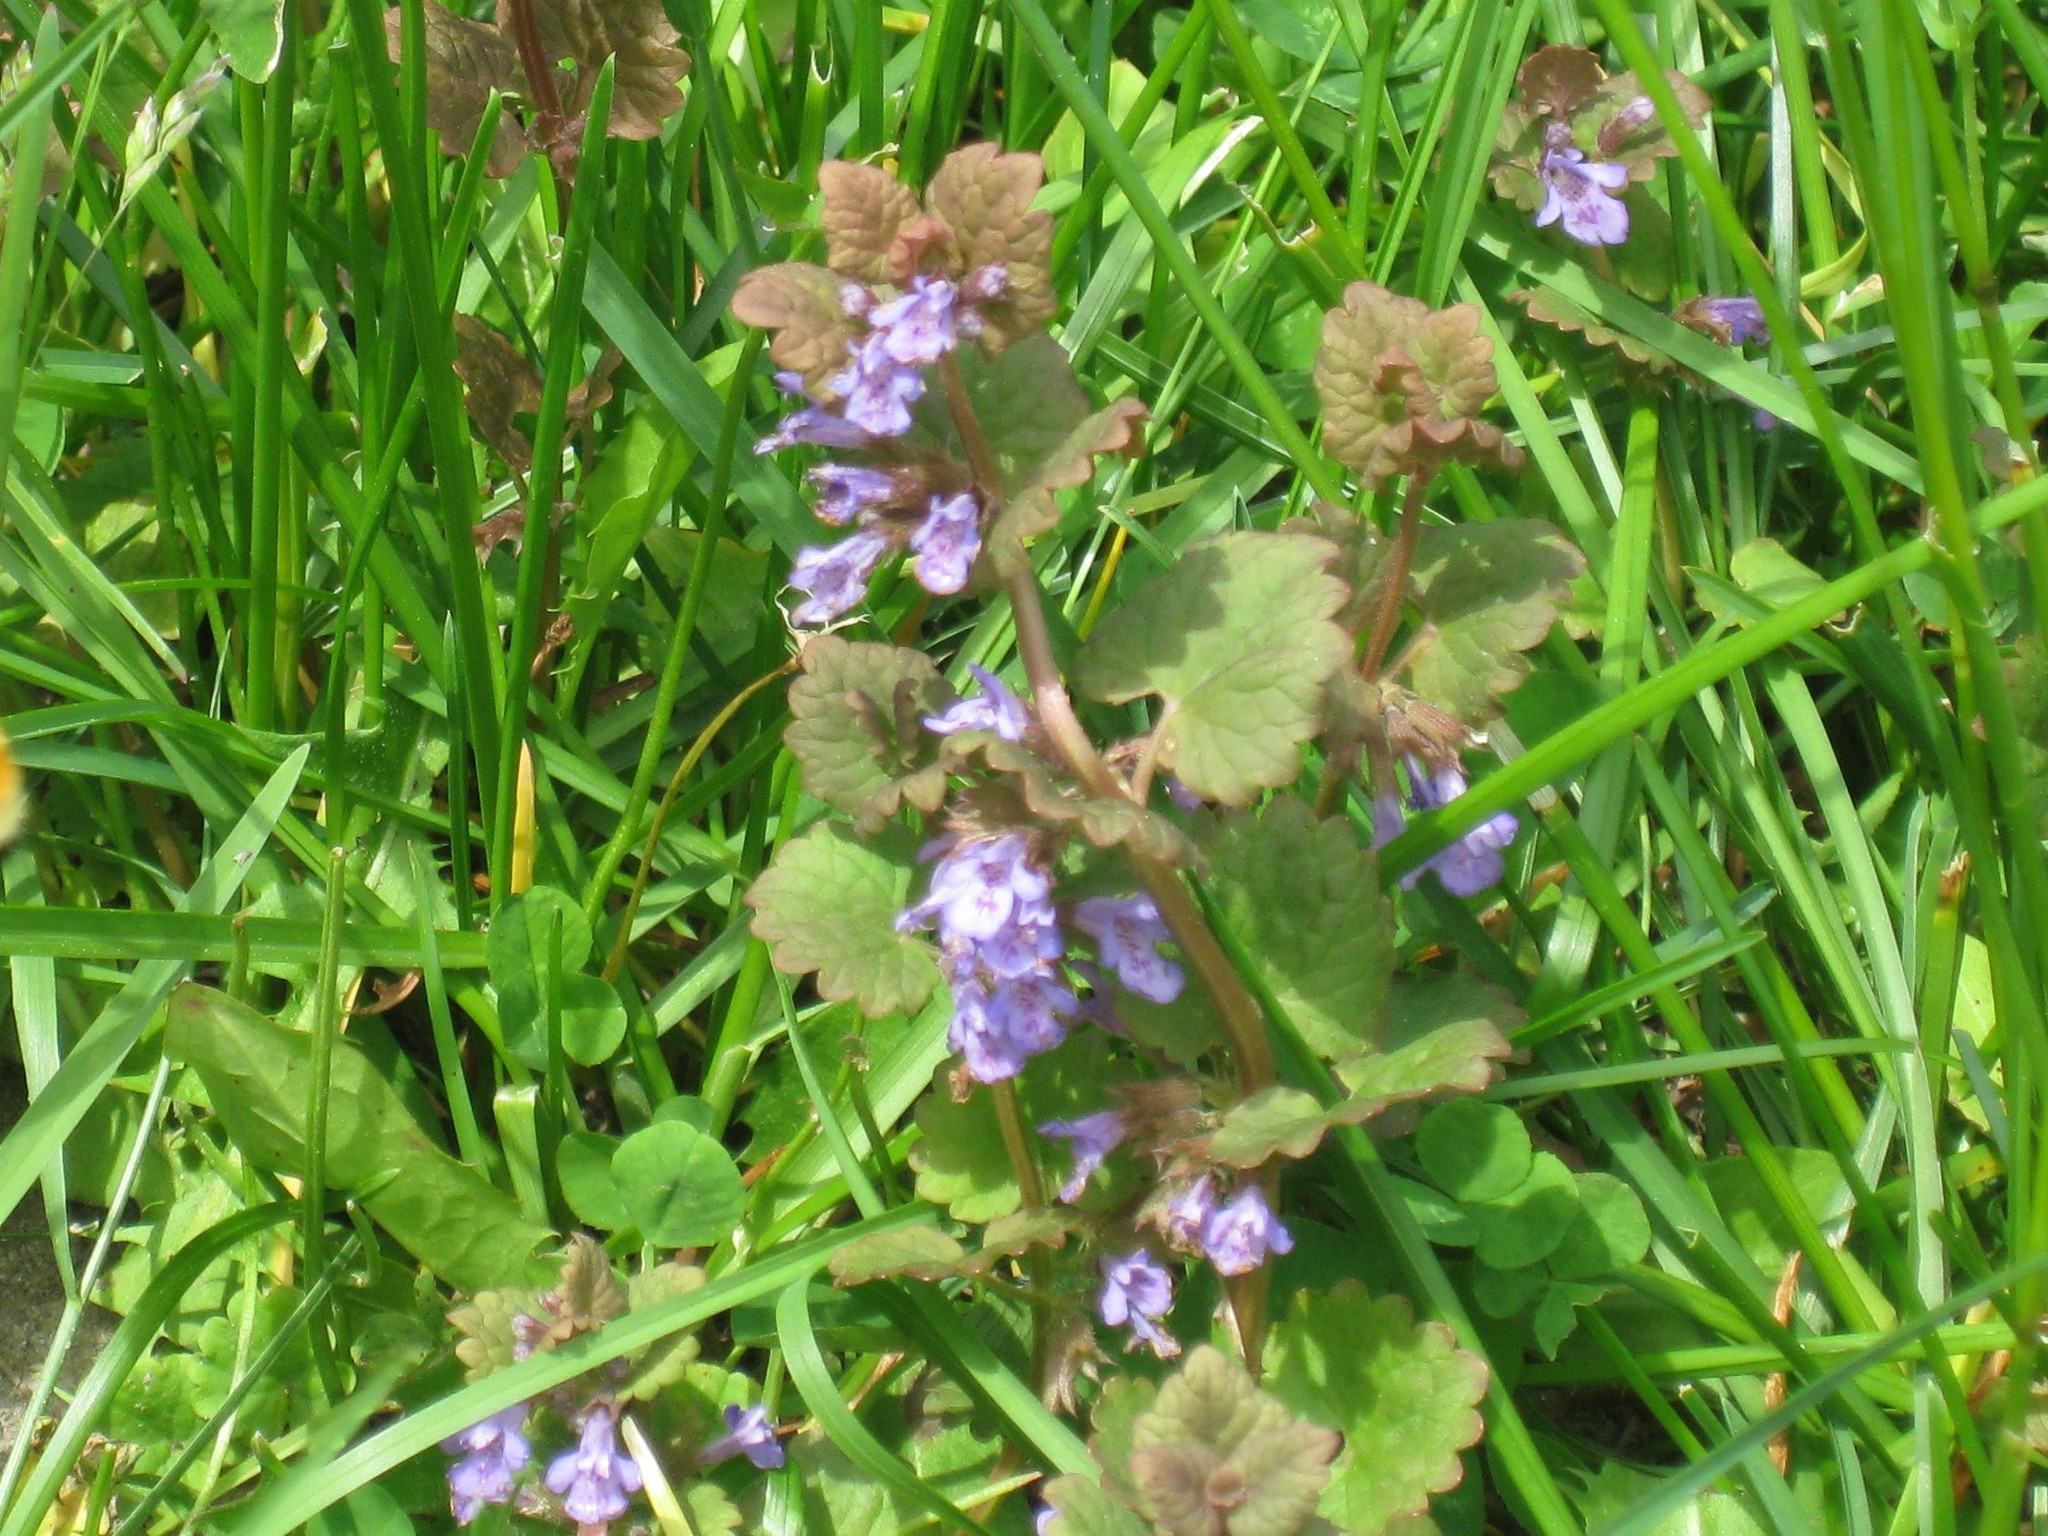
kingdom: Plantae
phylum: Tracheophyta
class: Magnoliopsida
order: Lamiales
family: Lamiaceae
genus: Glechoma
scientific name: Glechoma hederacea
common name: Ground ivy
